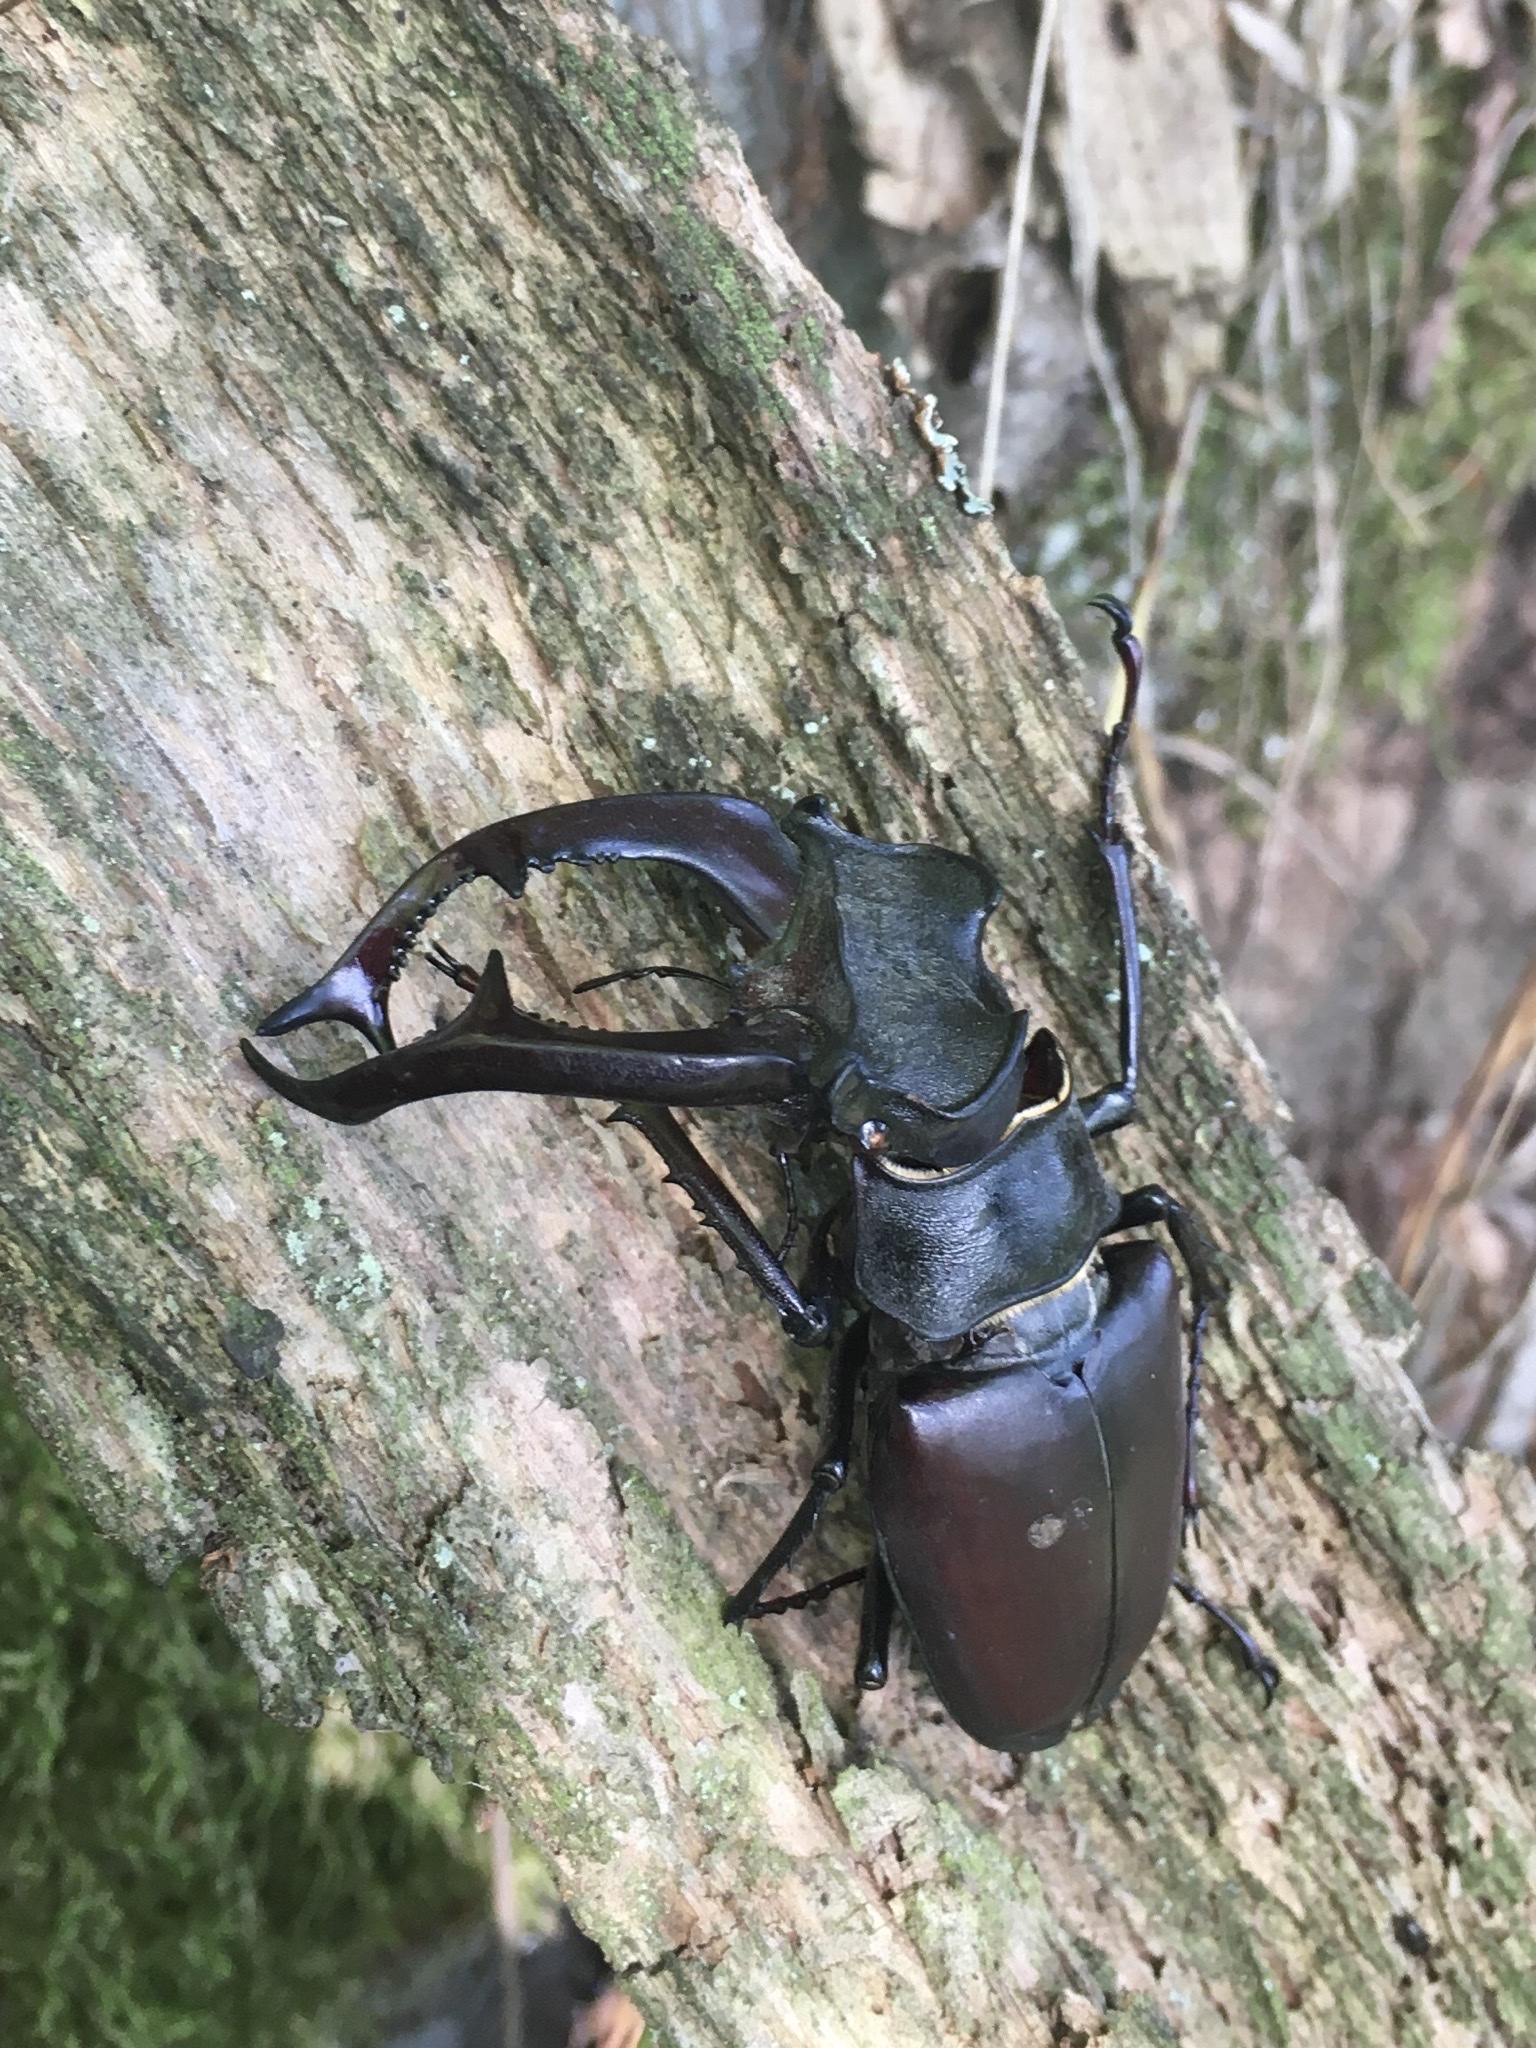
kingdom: Animalia
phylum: Arthropoda
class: Insecta
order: Coleoptera
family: Lucanidae
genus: Lucanus
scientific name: Lucanus cervus
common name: Stag beetle
